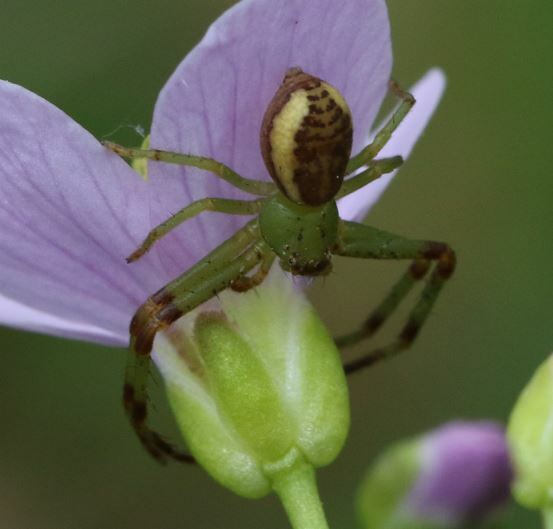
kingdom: Animalia
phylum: Arthropoda
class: Arachnida
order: Araneae
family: Thomisidae
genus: Diaea
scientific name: Diaea dorsata
